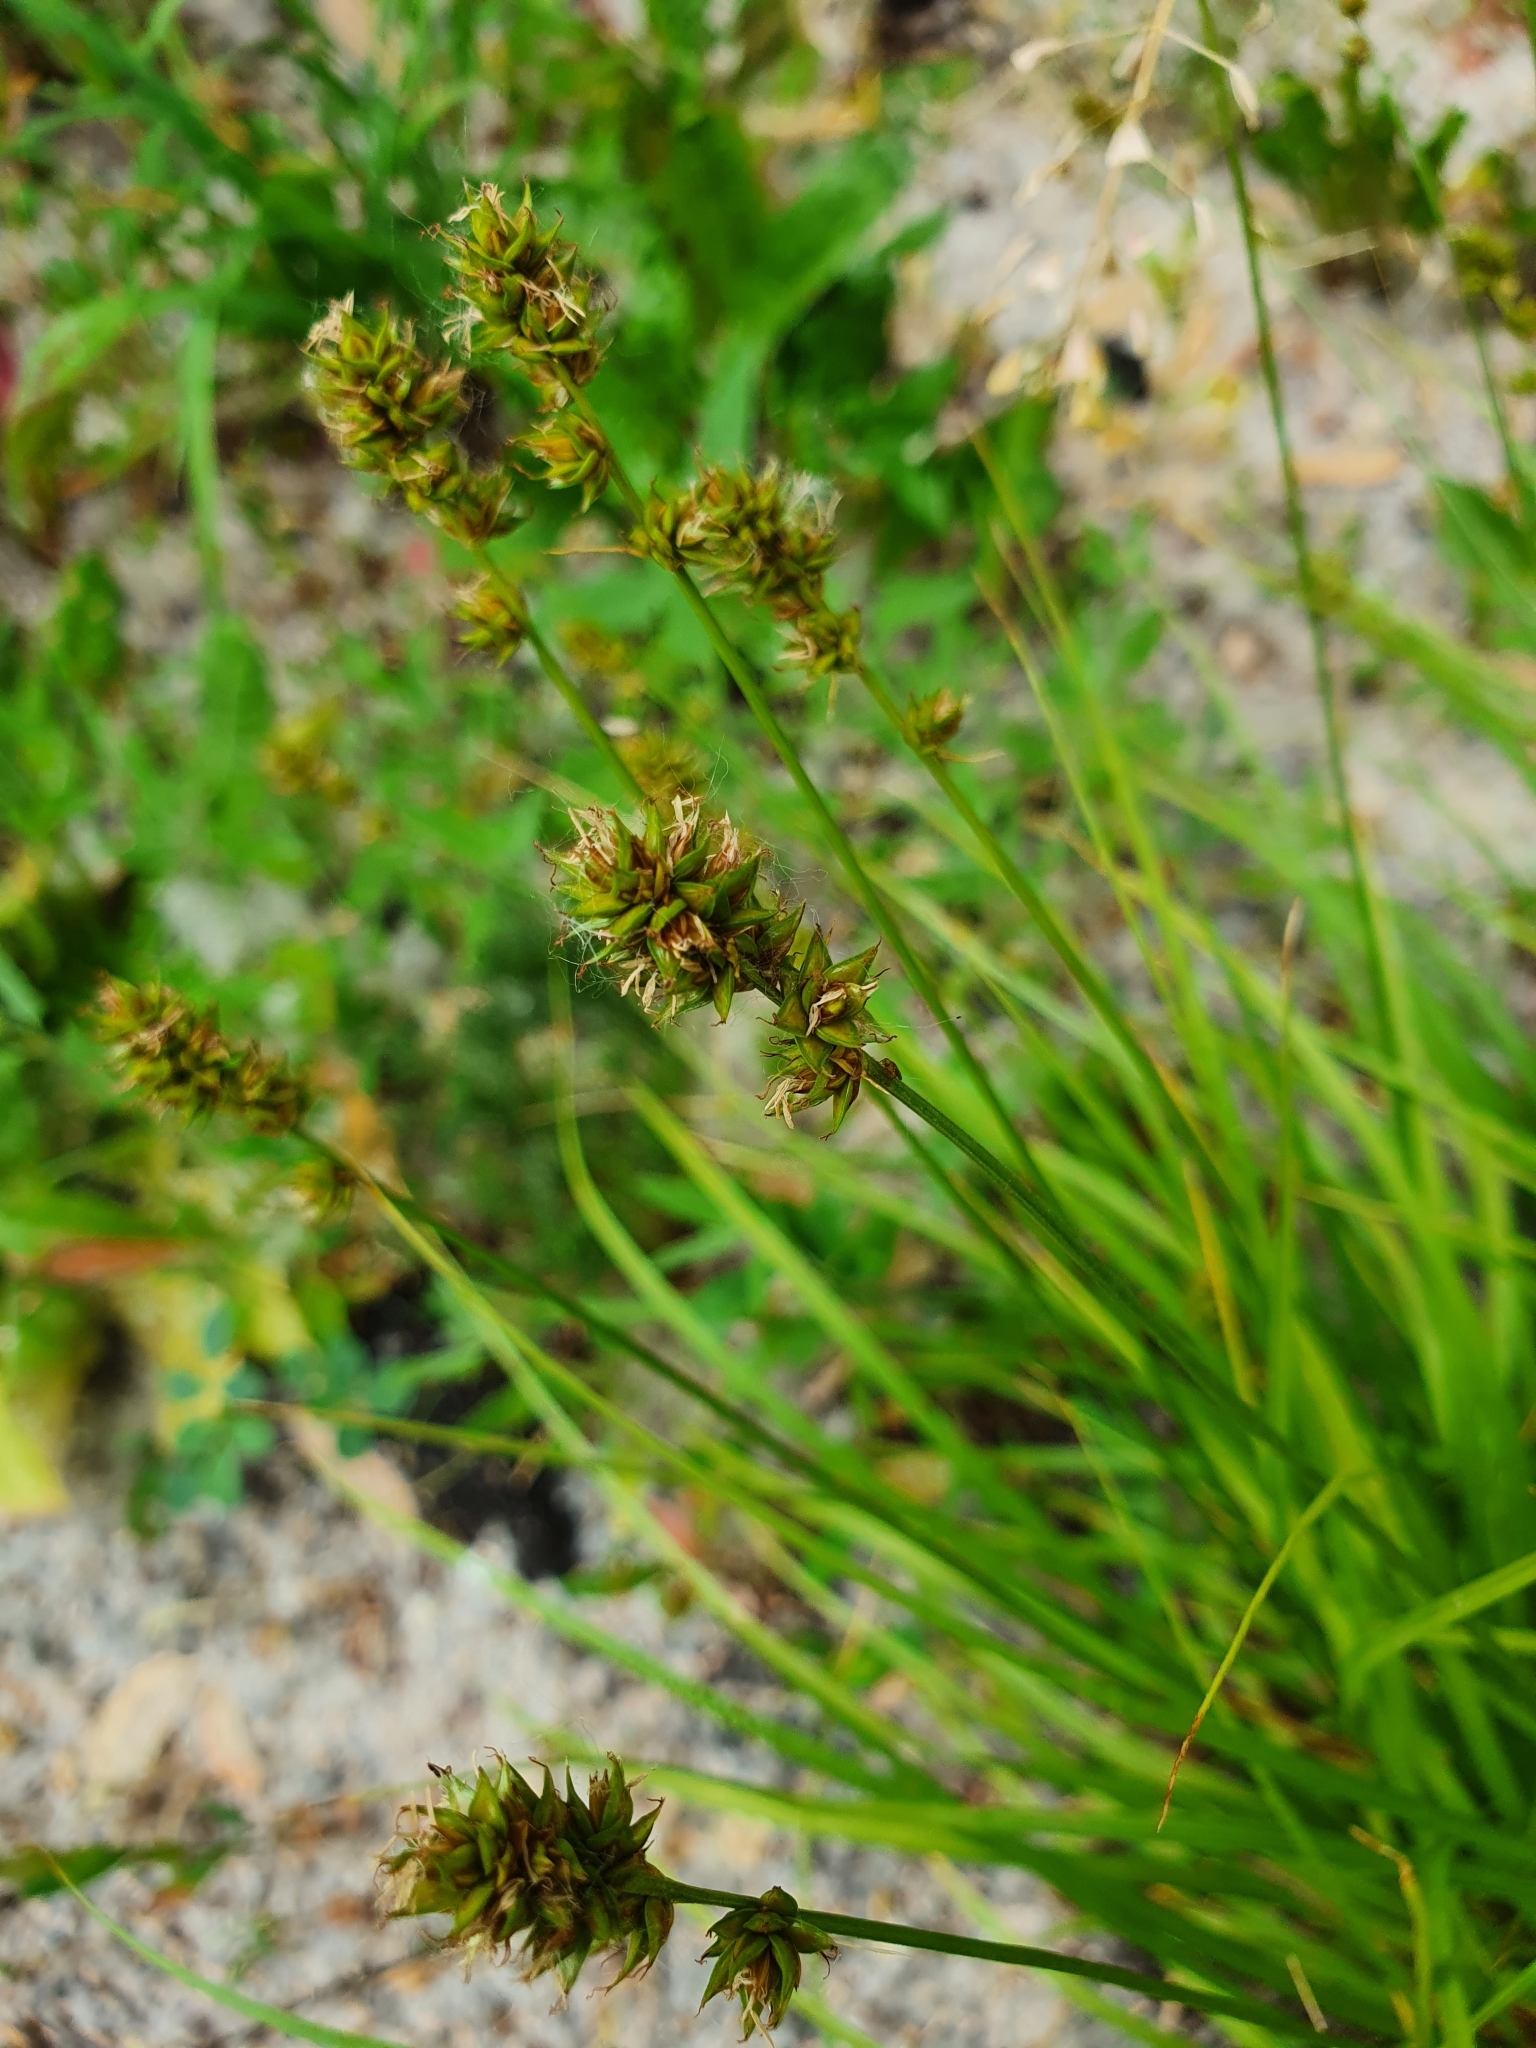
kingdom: Plantae
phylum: Tracheophyta
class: Liliopsida
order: Poales
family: Cyperaceae
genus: Carex
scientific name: Carex spicata
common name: Spiked sedge
